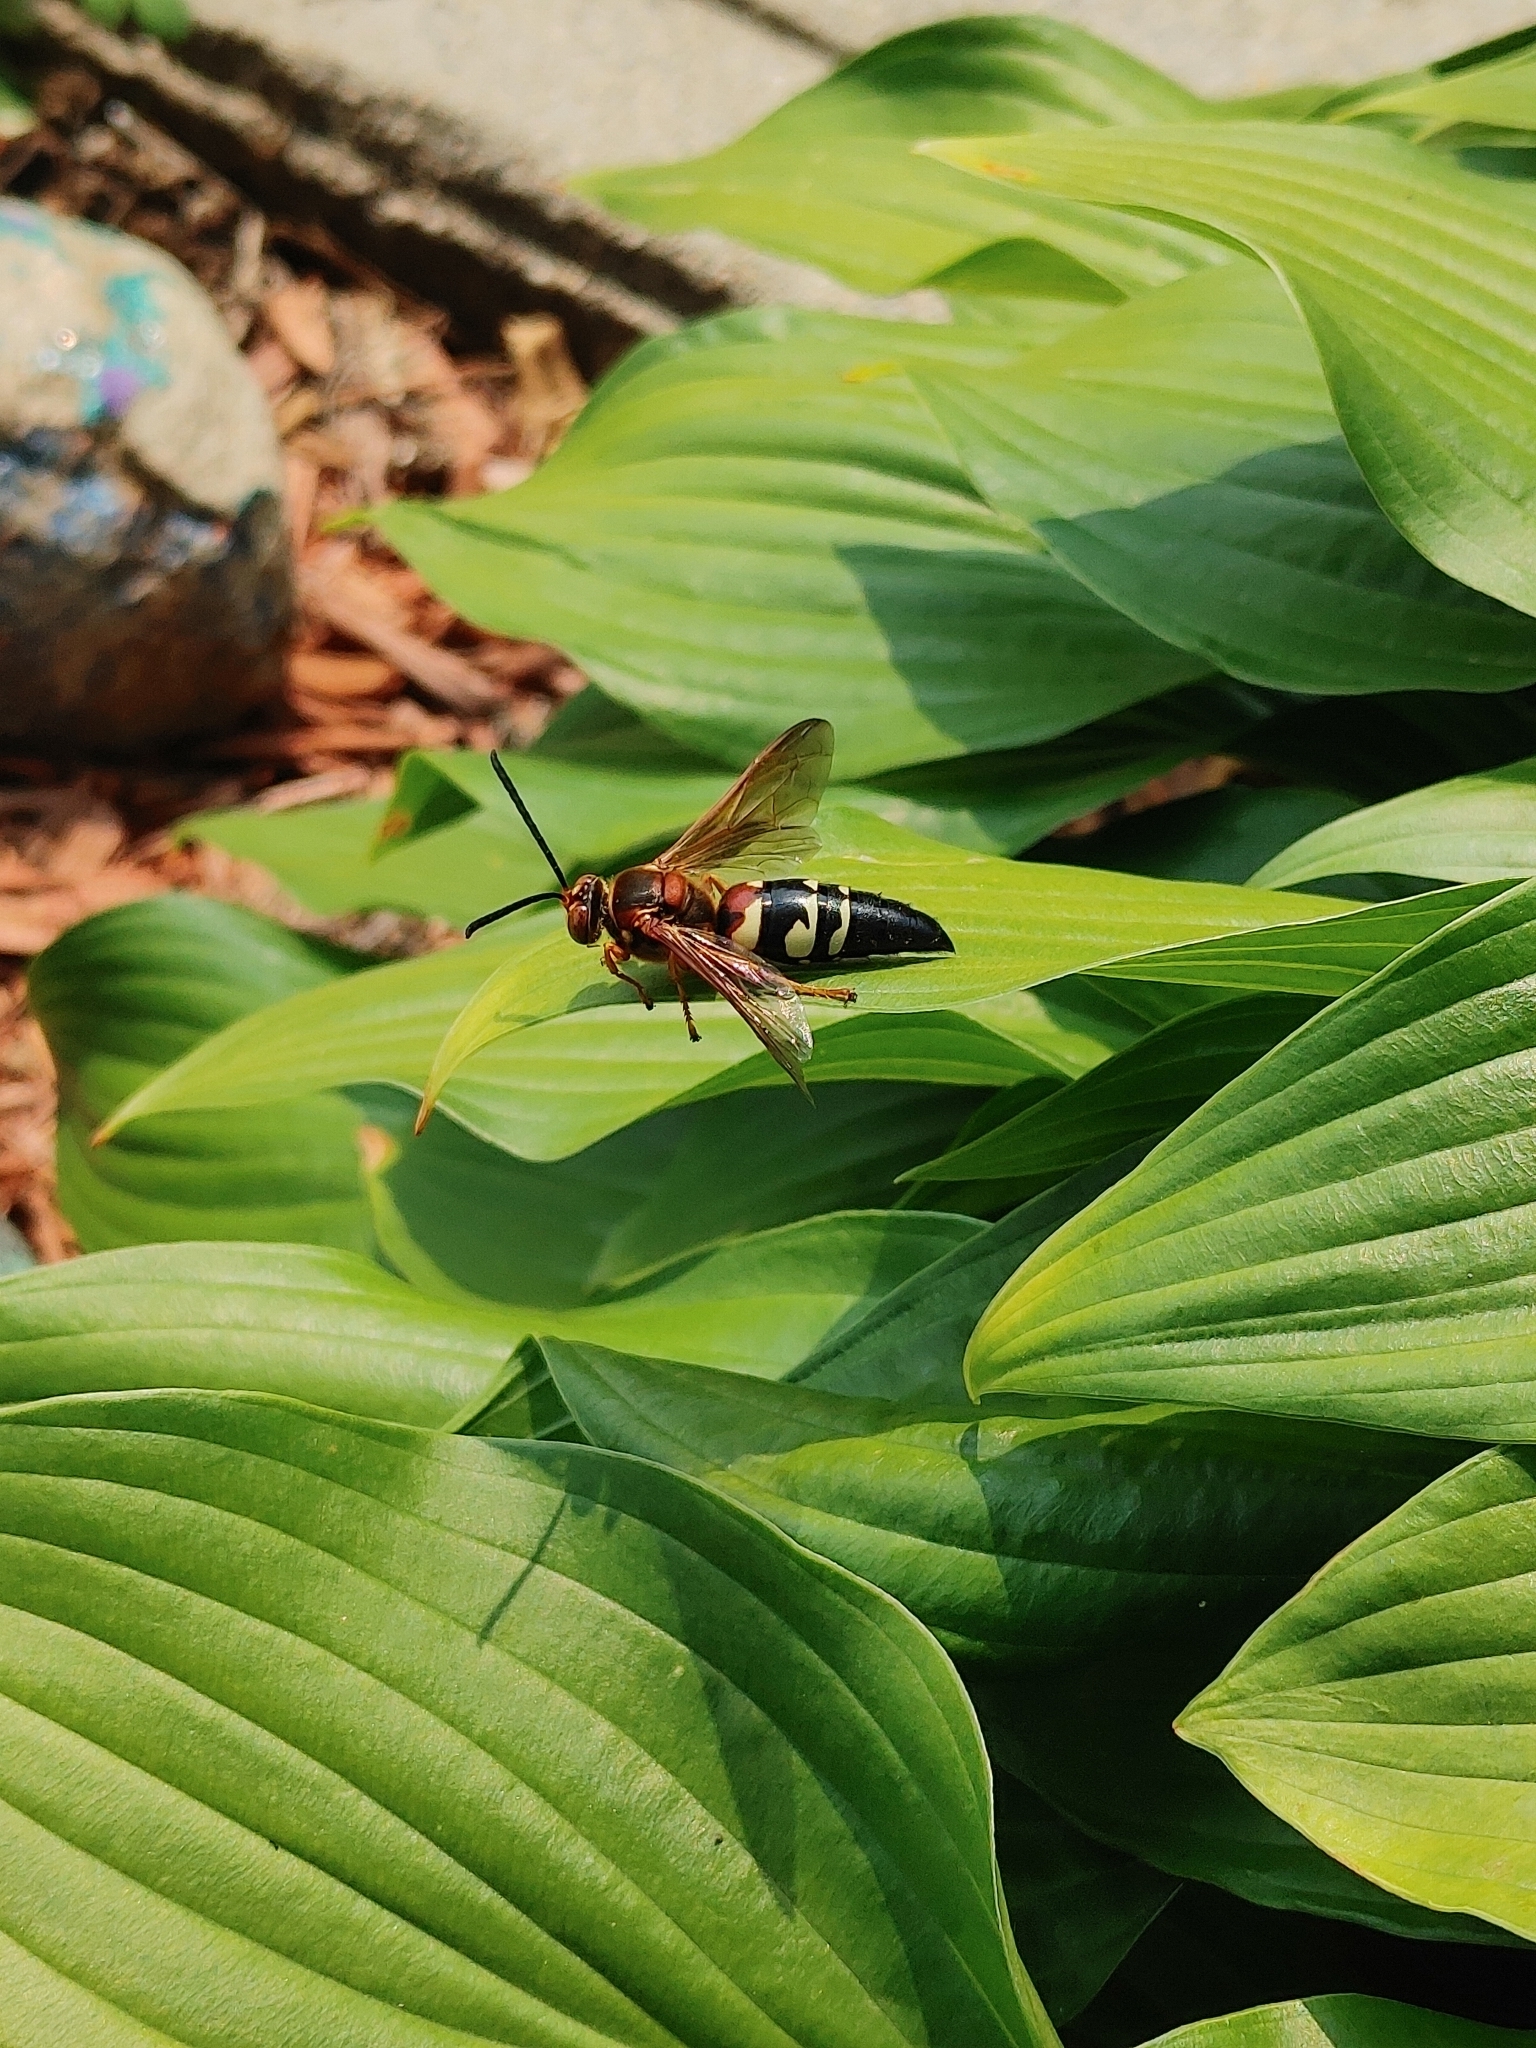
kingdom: Animalia
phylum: Arthropoda
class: Insecta
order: Hymenoptera
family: Crabronidae
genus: Sphecius
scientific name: Sphecius speciosus
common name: Cicada killer
